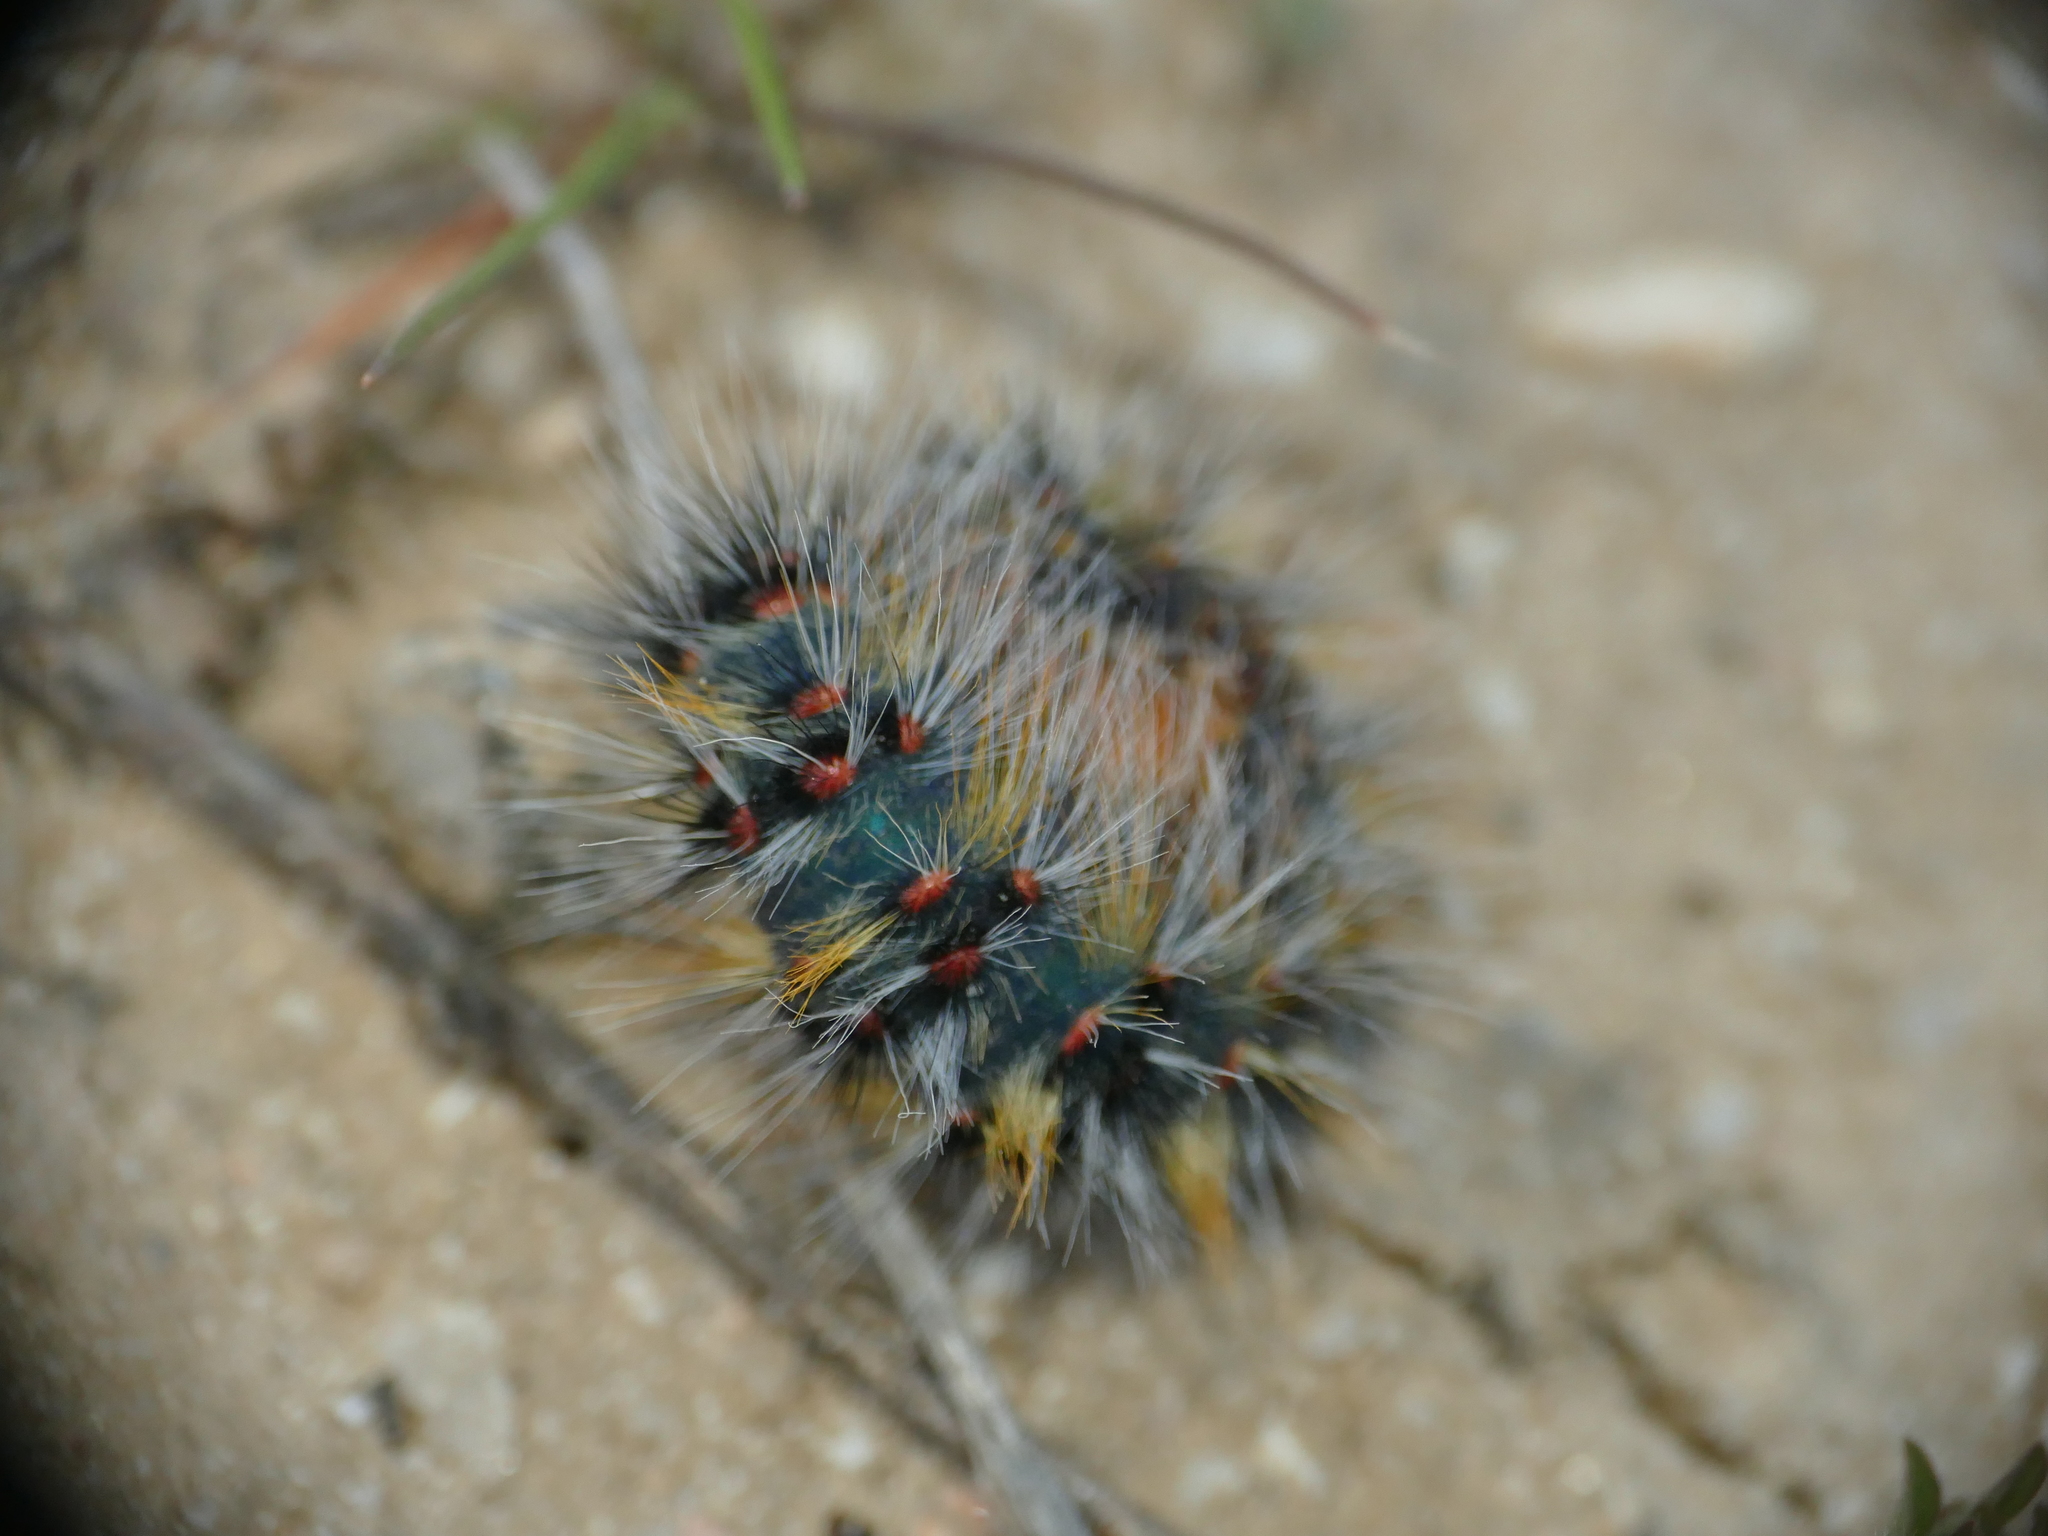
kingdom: Animalia
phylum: Arthropoda
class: Insecta
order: Lepidoptera
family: Lasiocampidae
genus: Chondrostega
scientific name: Chondrostega vandalicia
